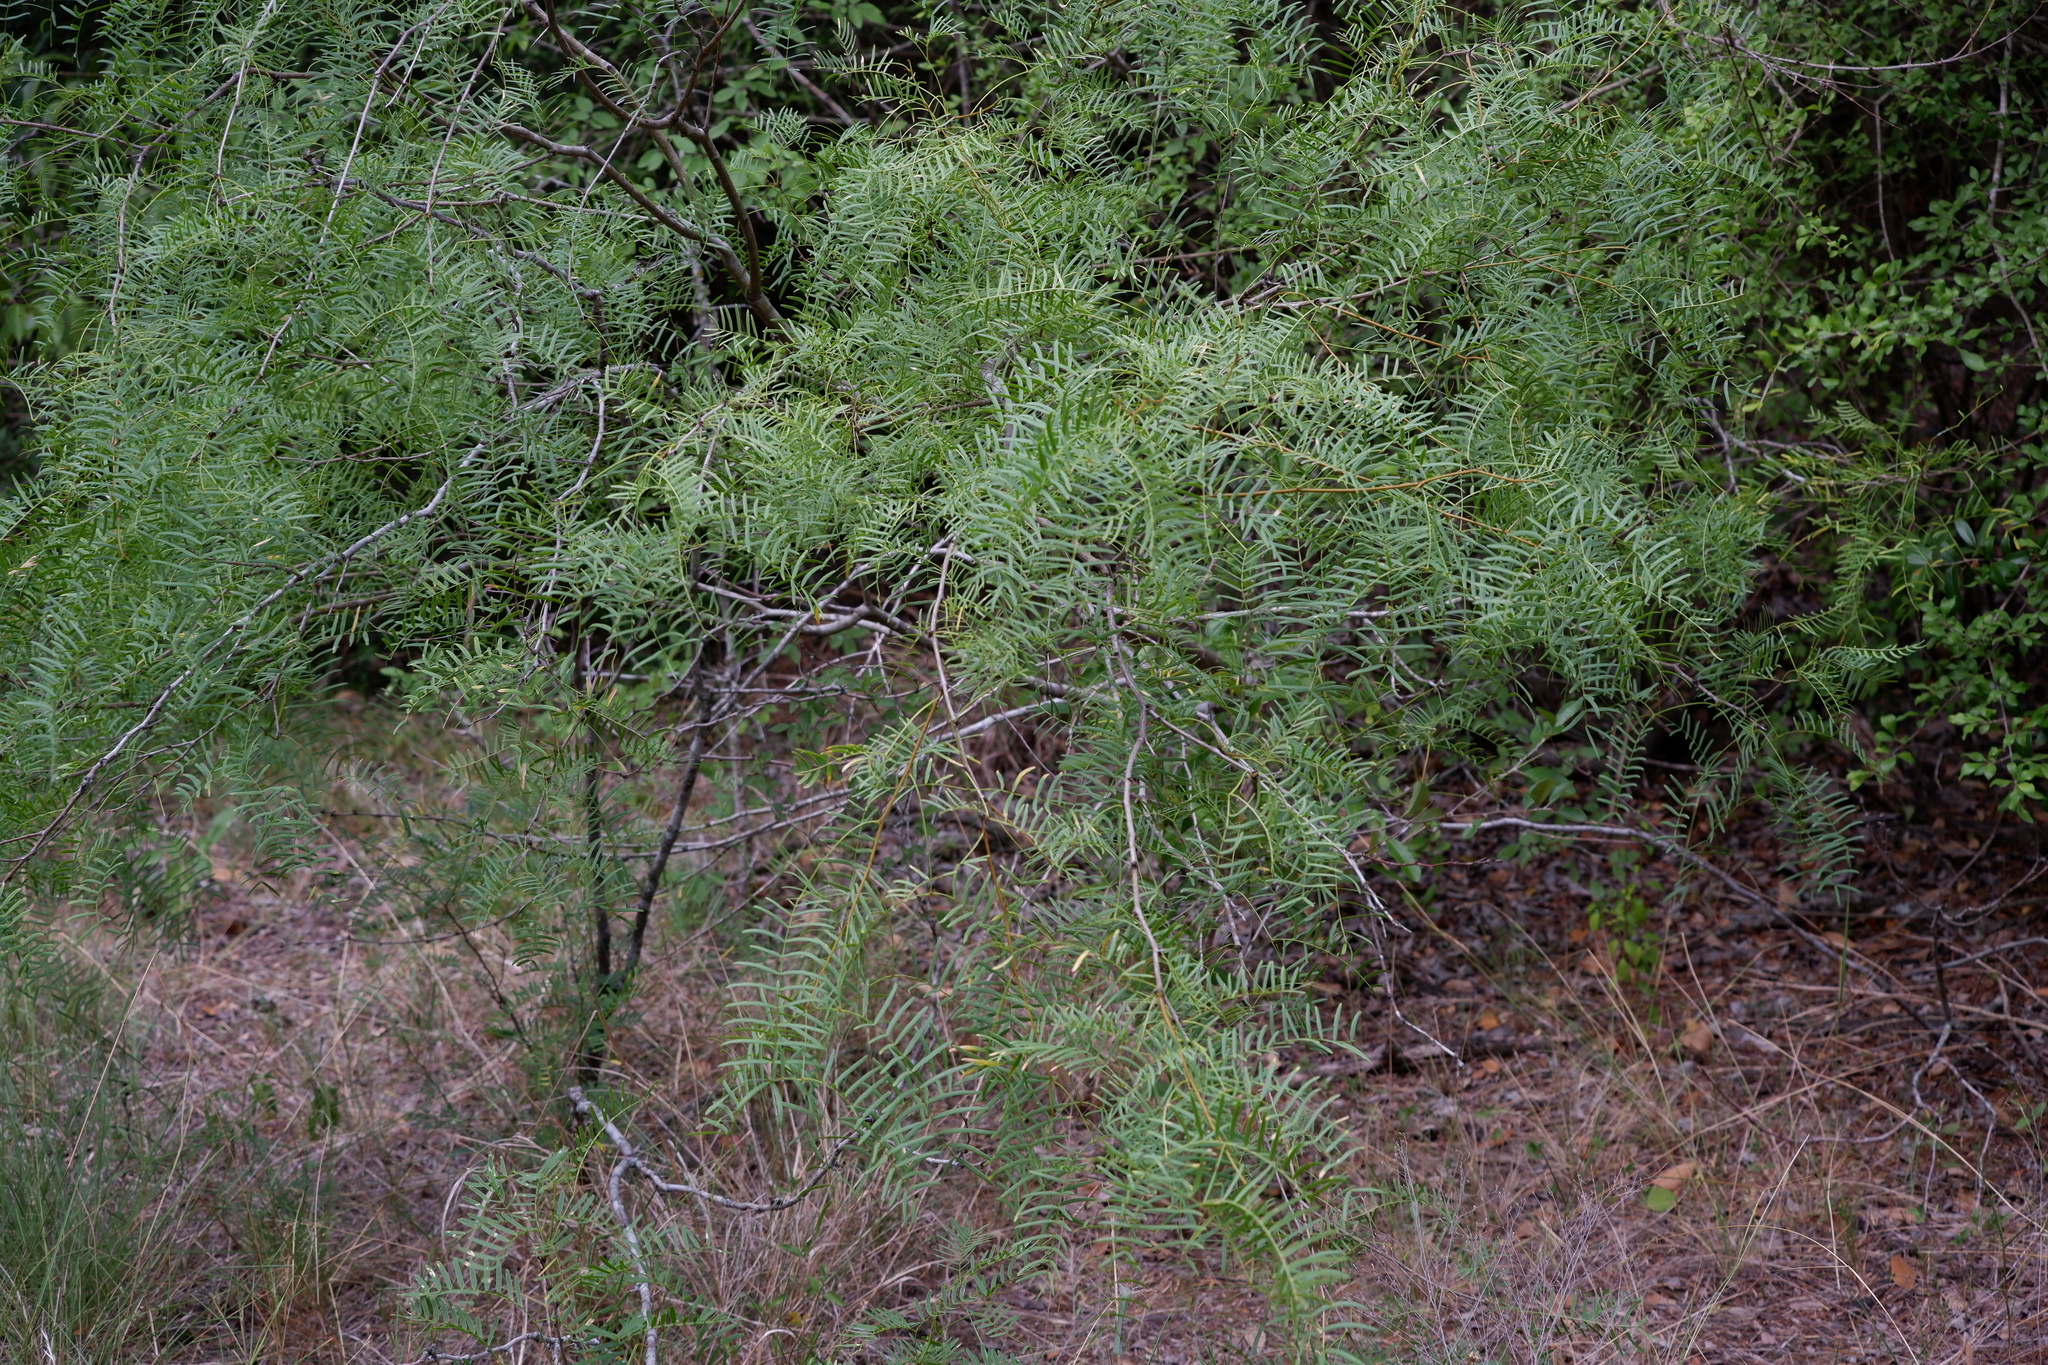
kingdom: Plantae
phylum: Tracheophyta
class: Magnoliopsida
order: Fabales
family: Fabaceae
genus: Prosopis
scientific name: Prosopis glandulosa
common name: Honey mesquite
